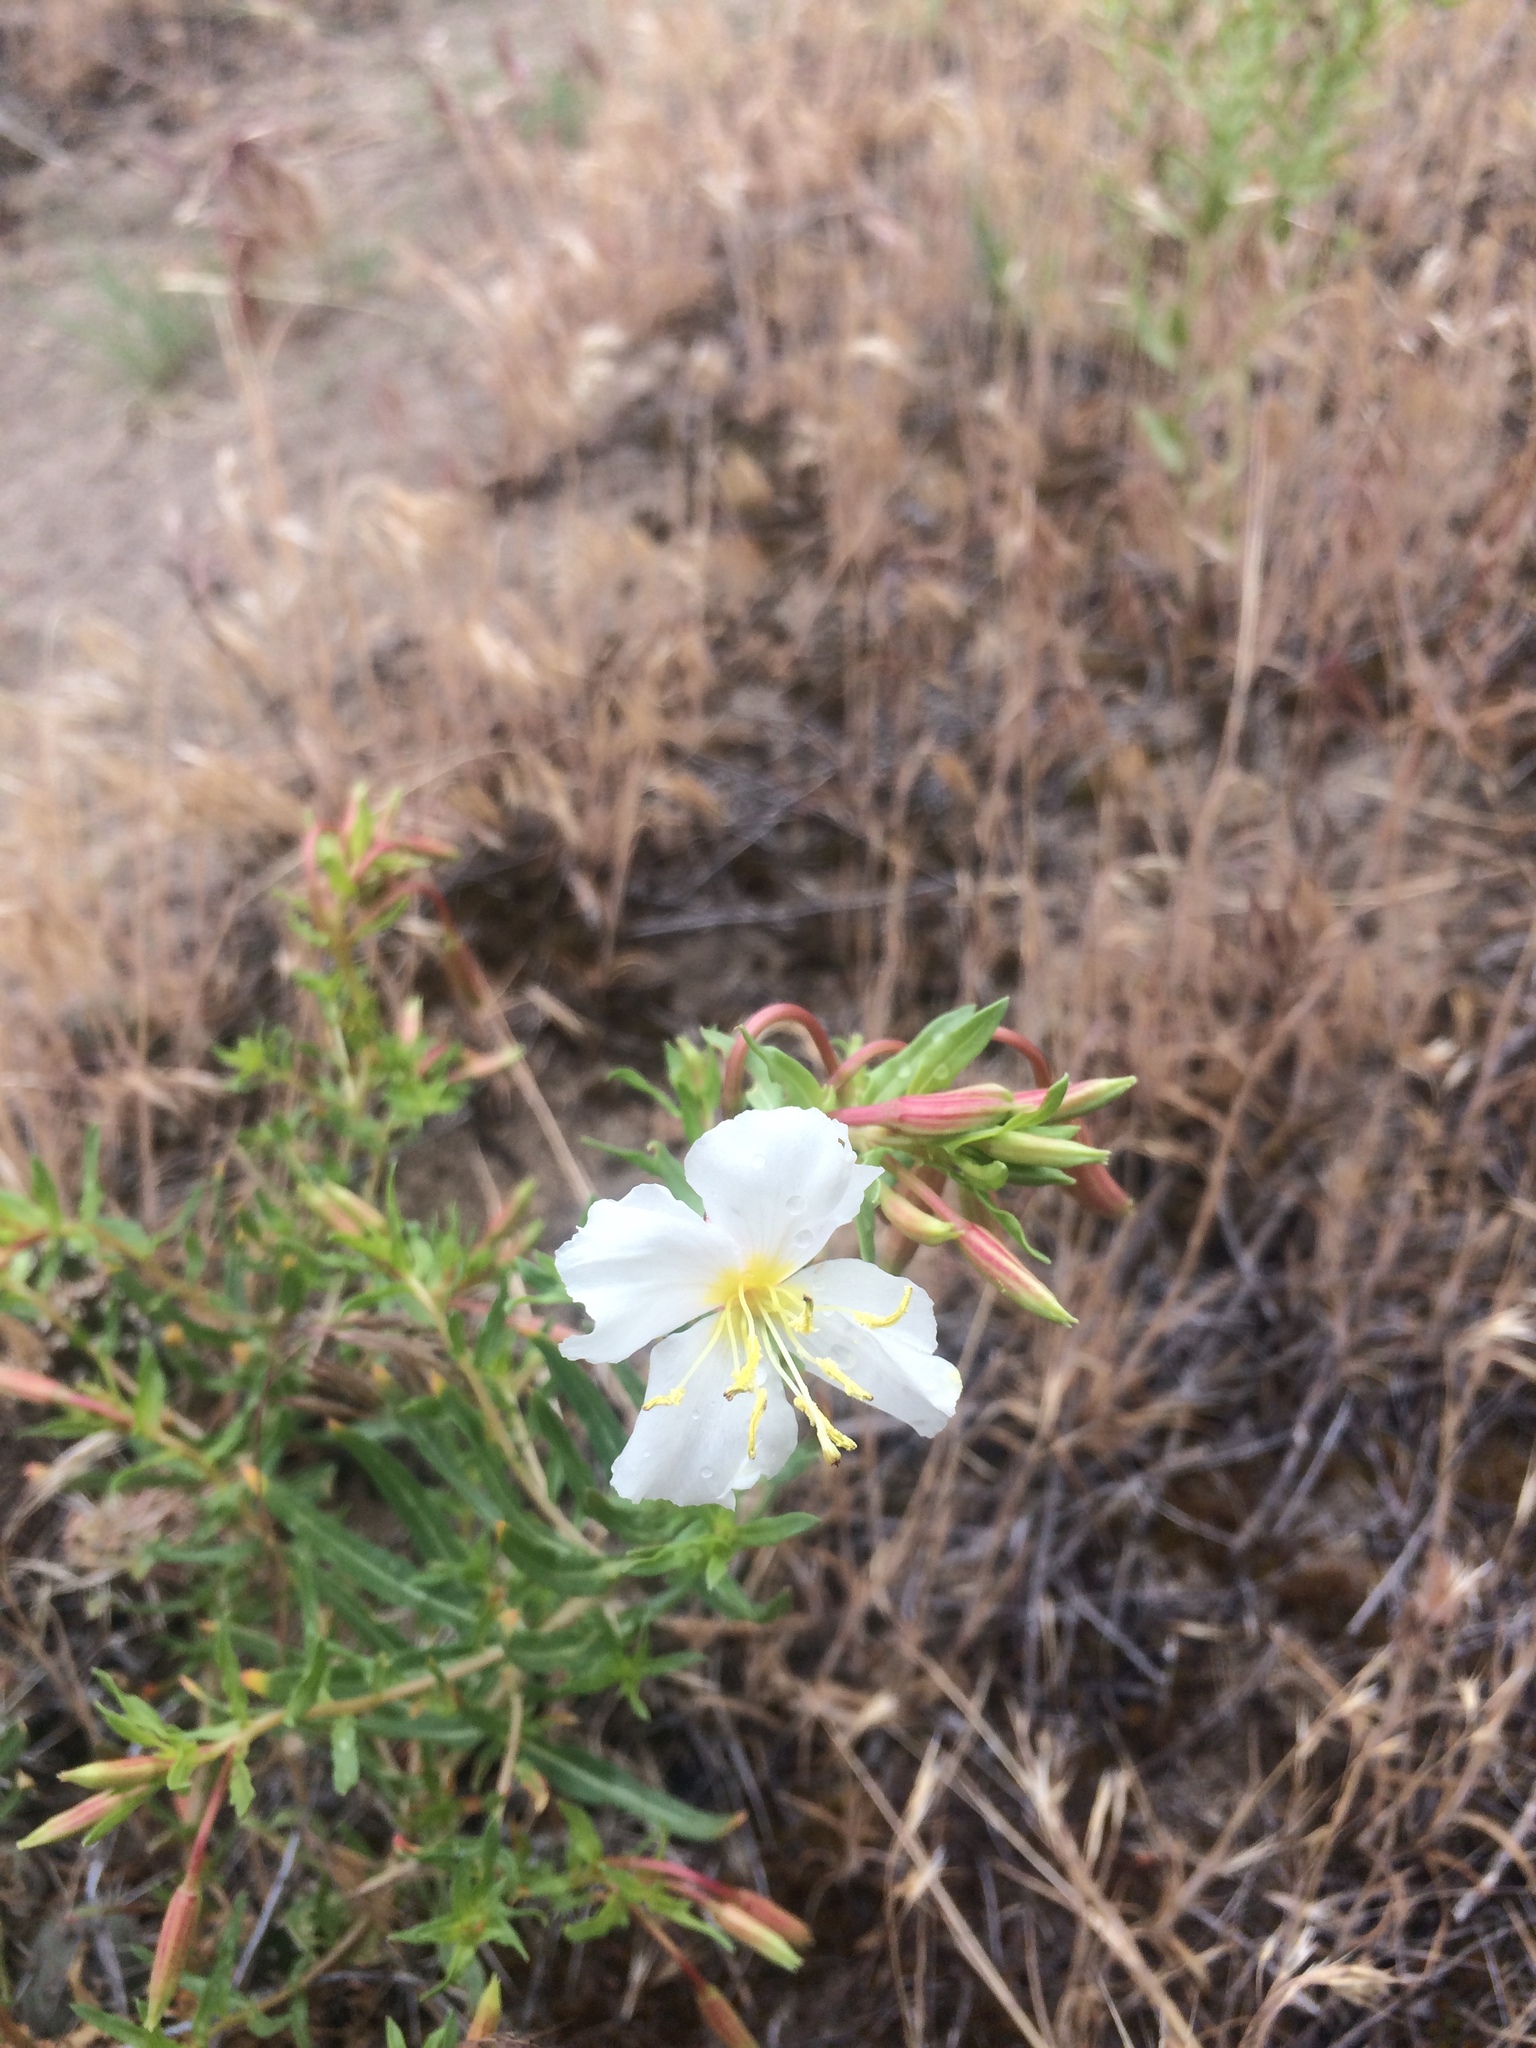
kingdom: Plantae
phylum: Tracheophyta
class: Magnoliopsida
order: Myrtales
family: Onagraceae
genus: Oenothera
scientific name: Oenothera pallida
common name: Pale evening-primrose
